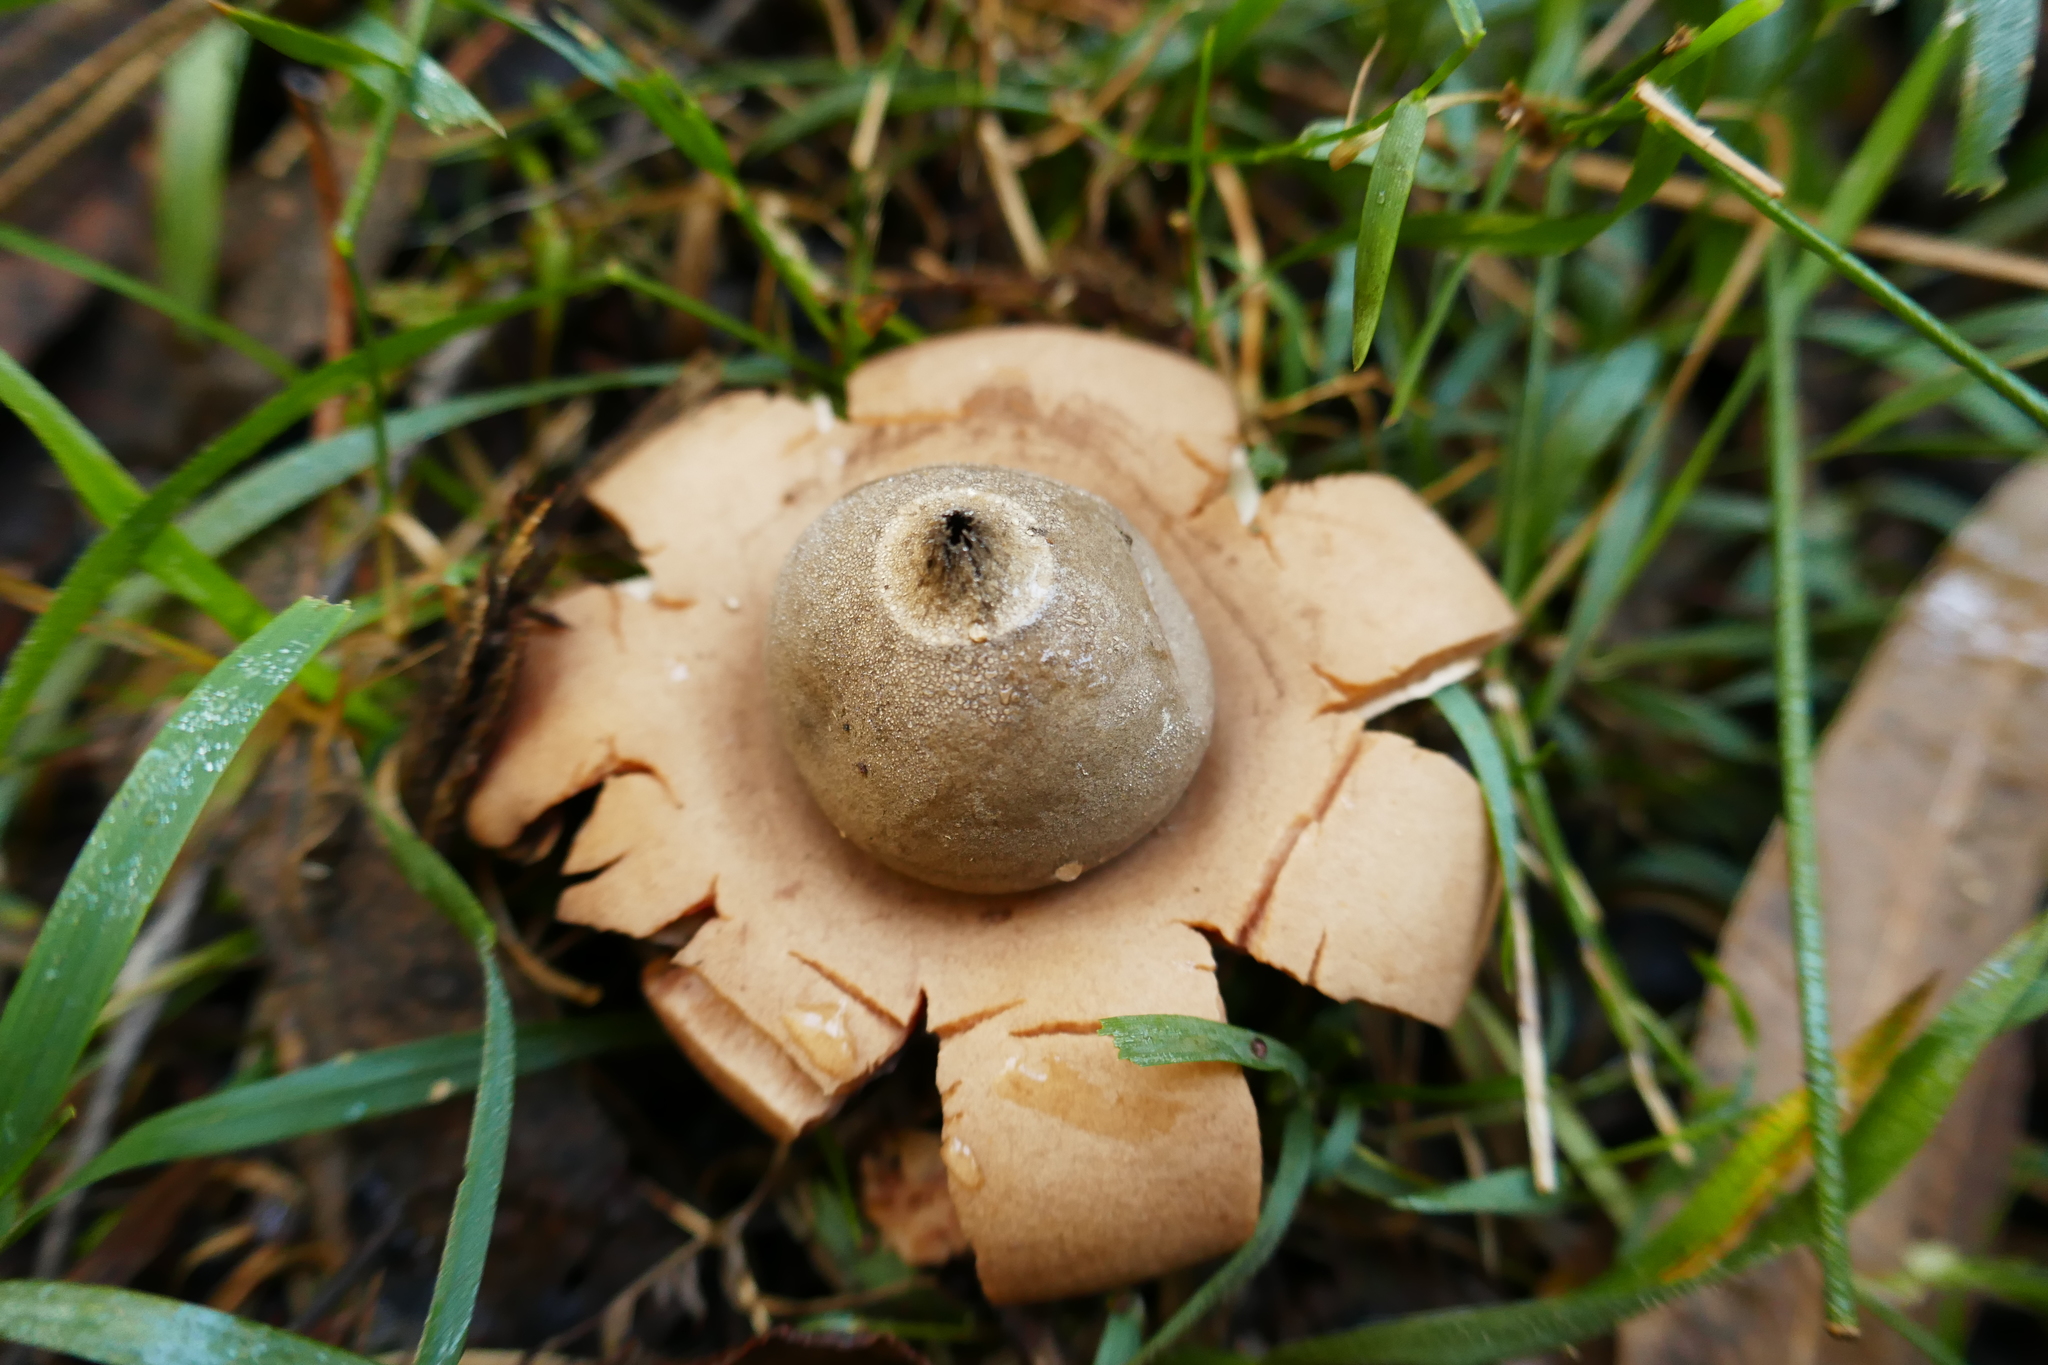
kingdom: Fungi
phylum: Basidiomycota
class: Agaricomycetes
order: Geastrales
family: Geastraceae
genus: Geastrum
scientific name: Geastrum triplex
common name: Collared earthstar
